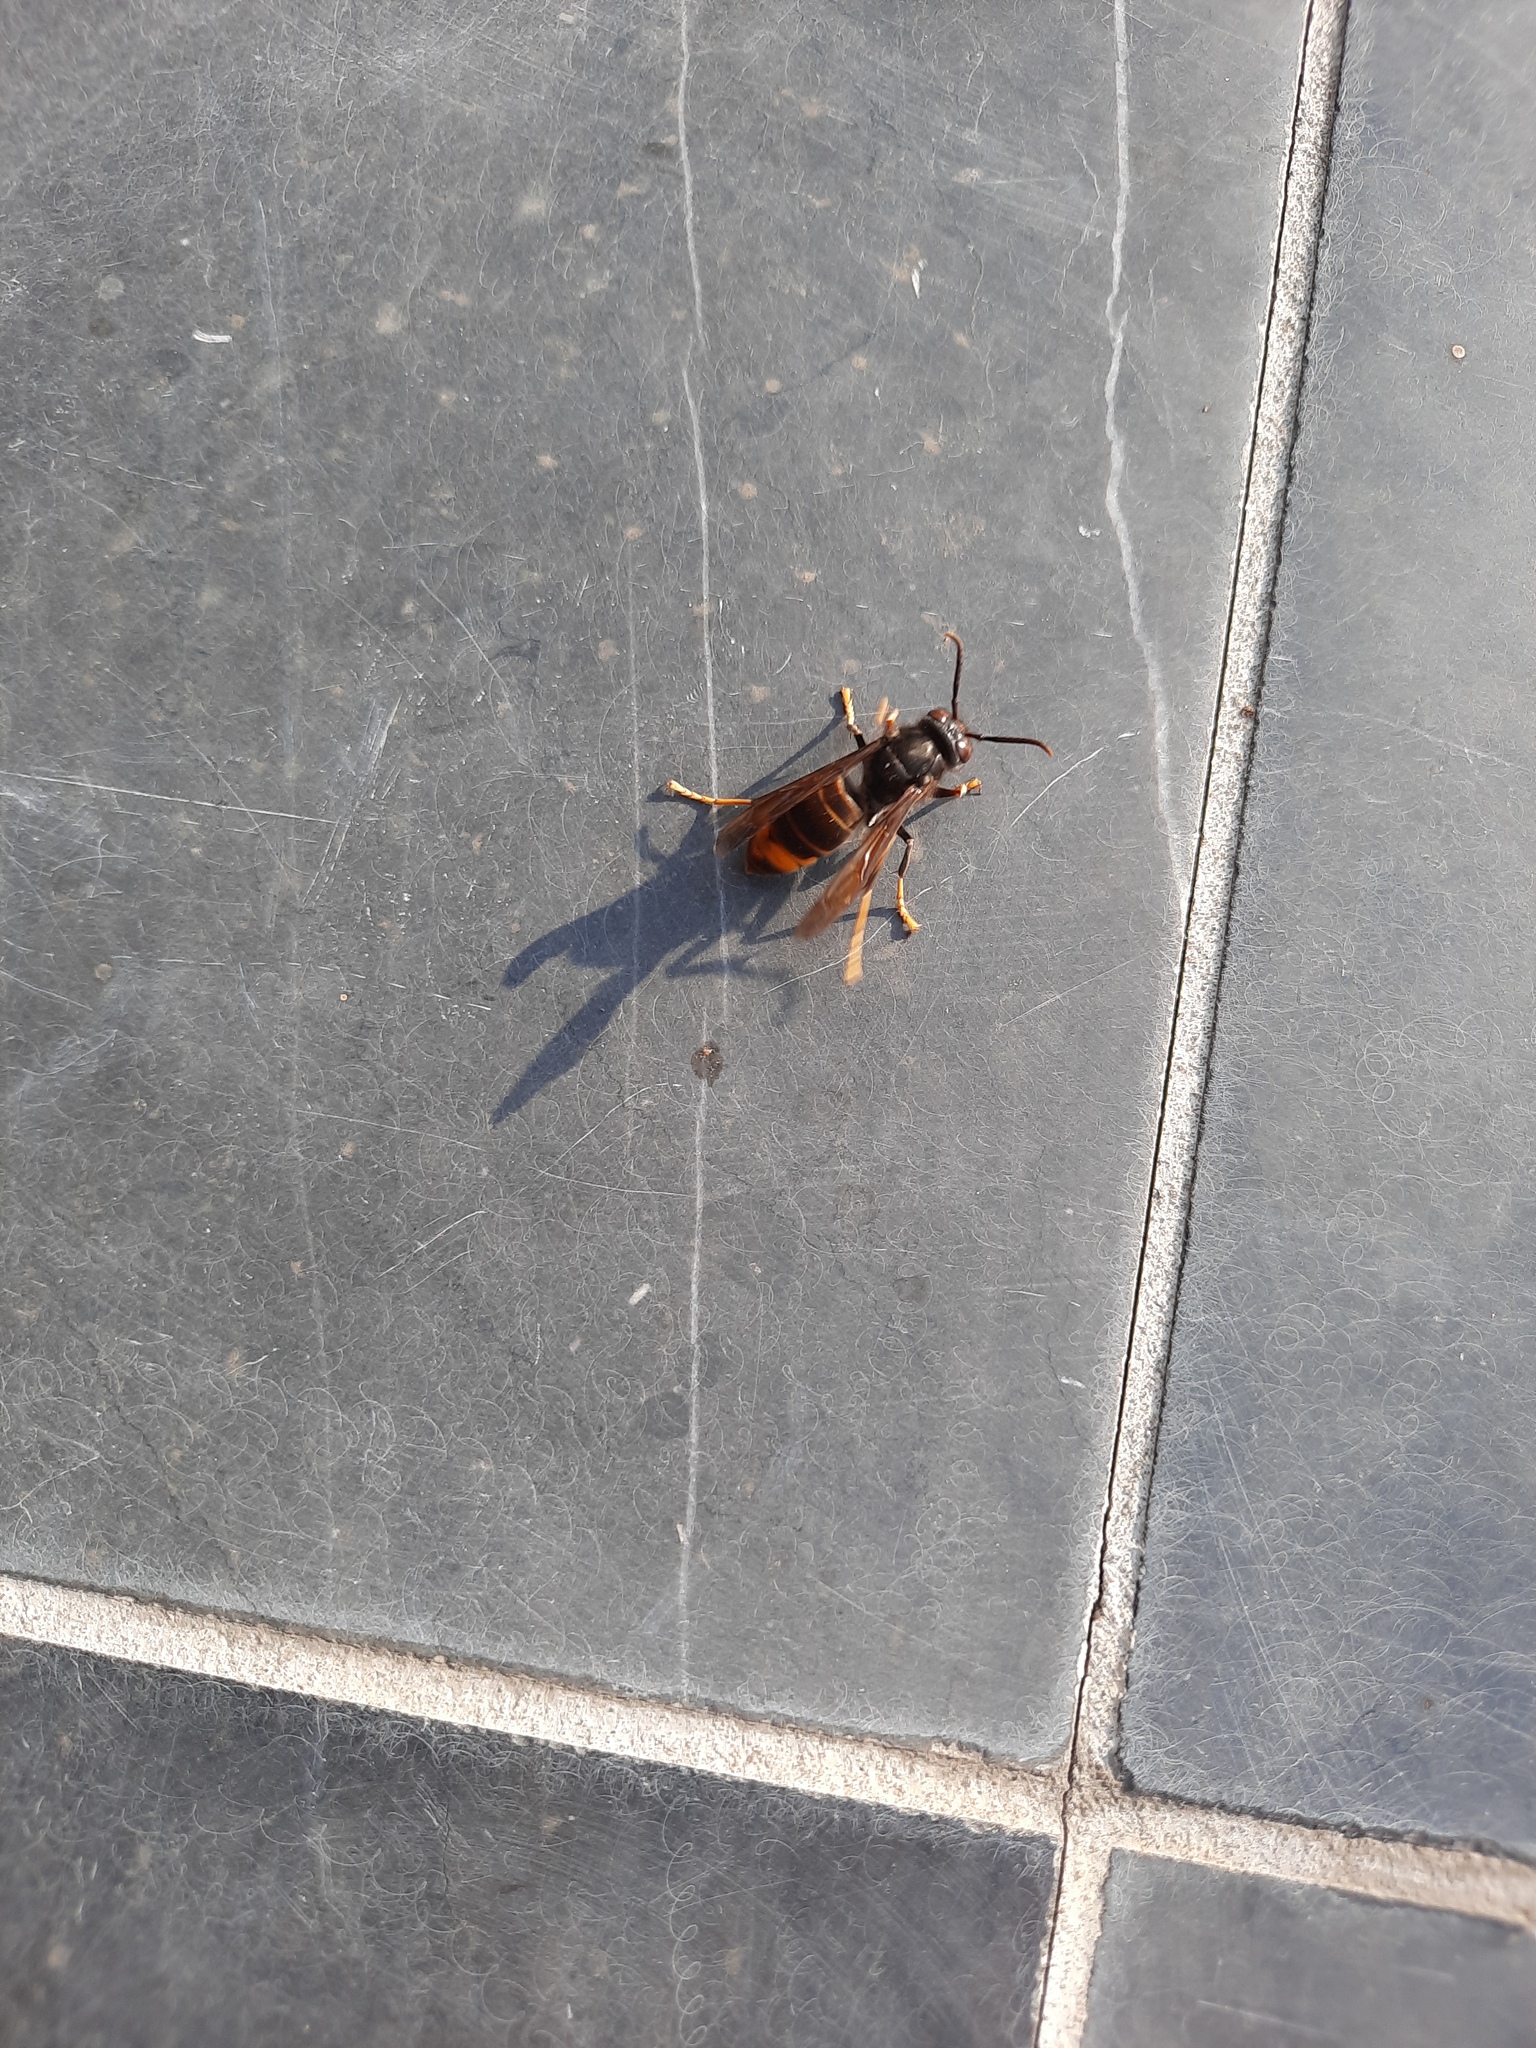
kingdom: Animalia
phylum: Arthropoda
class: Insecta
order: Hymenoptera
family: Vespidae
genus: Vespa
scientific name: Vespa velutina
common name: Asian hornet
